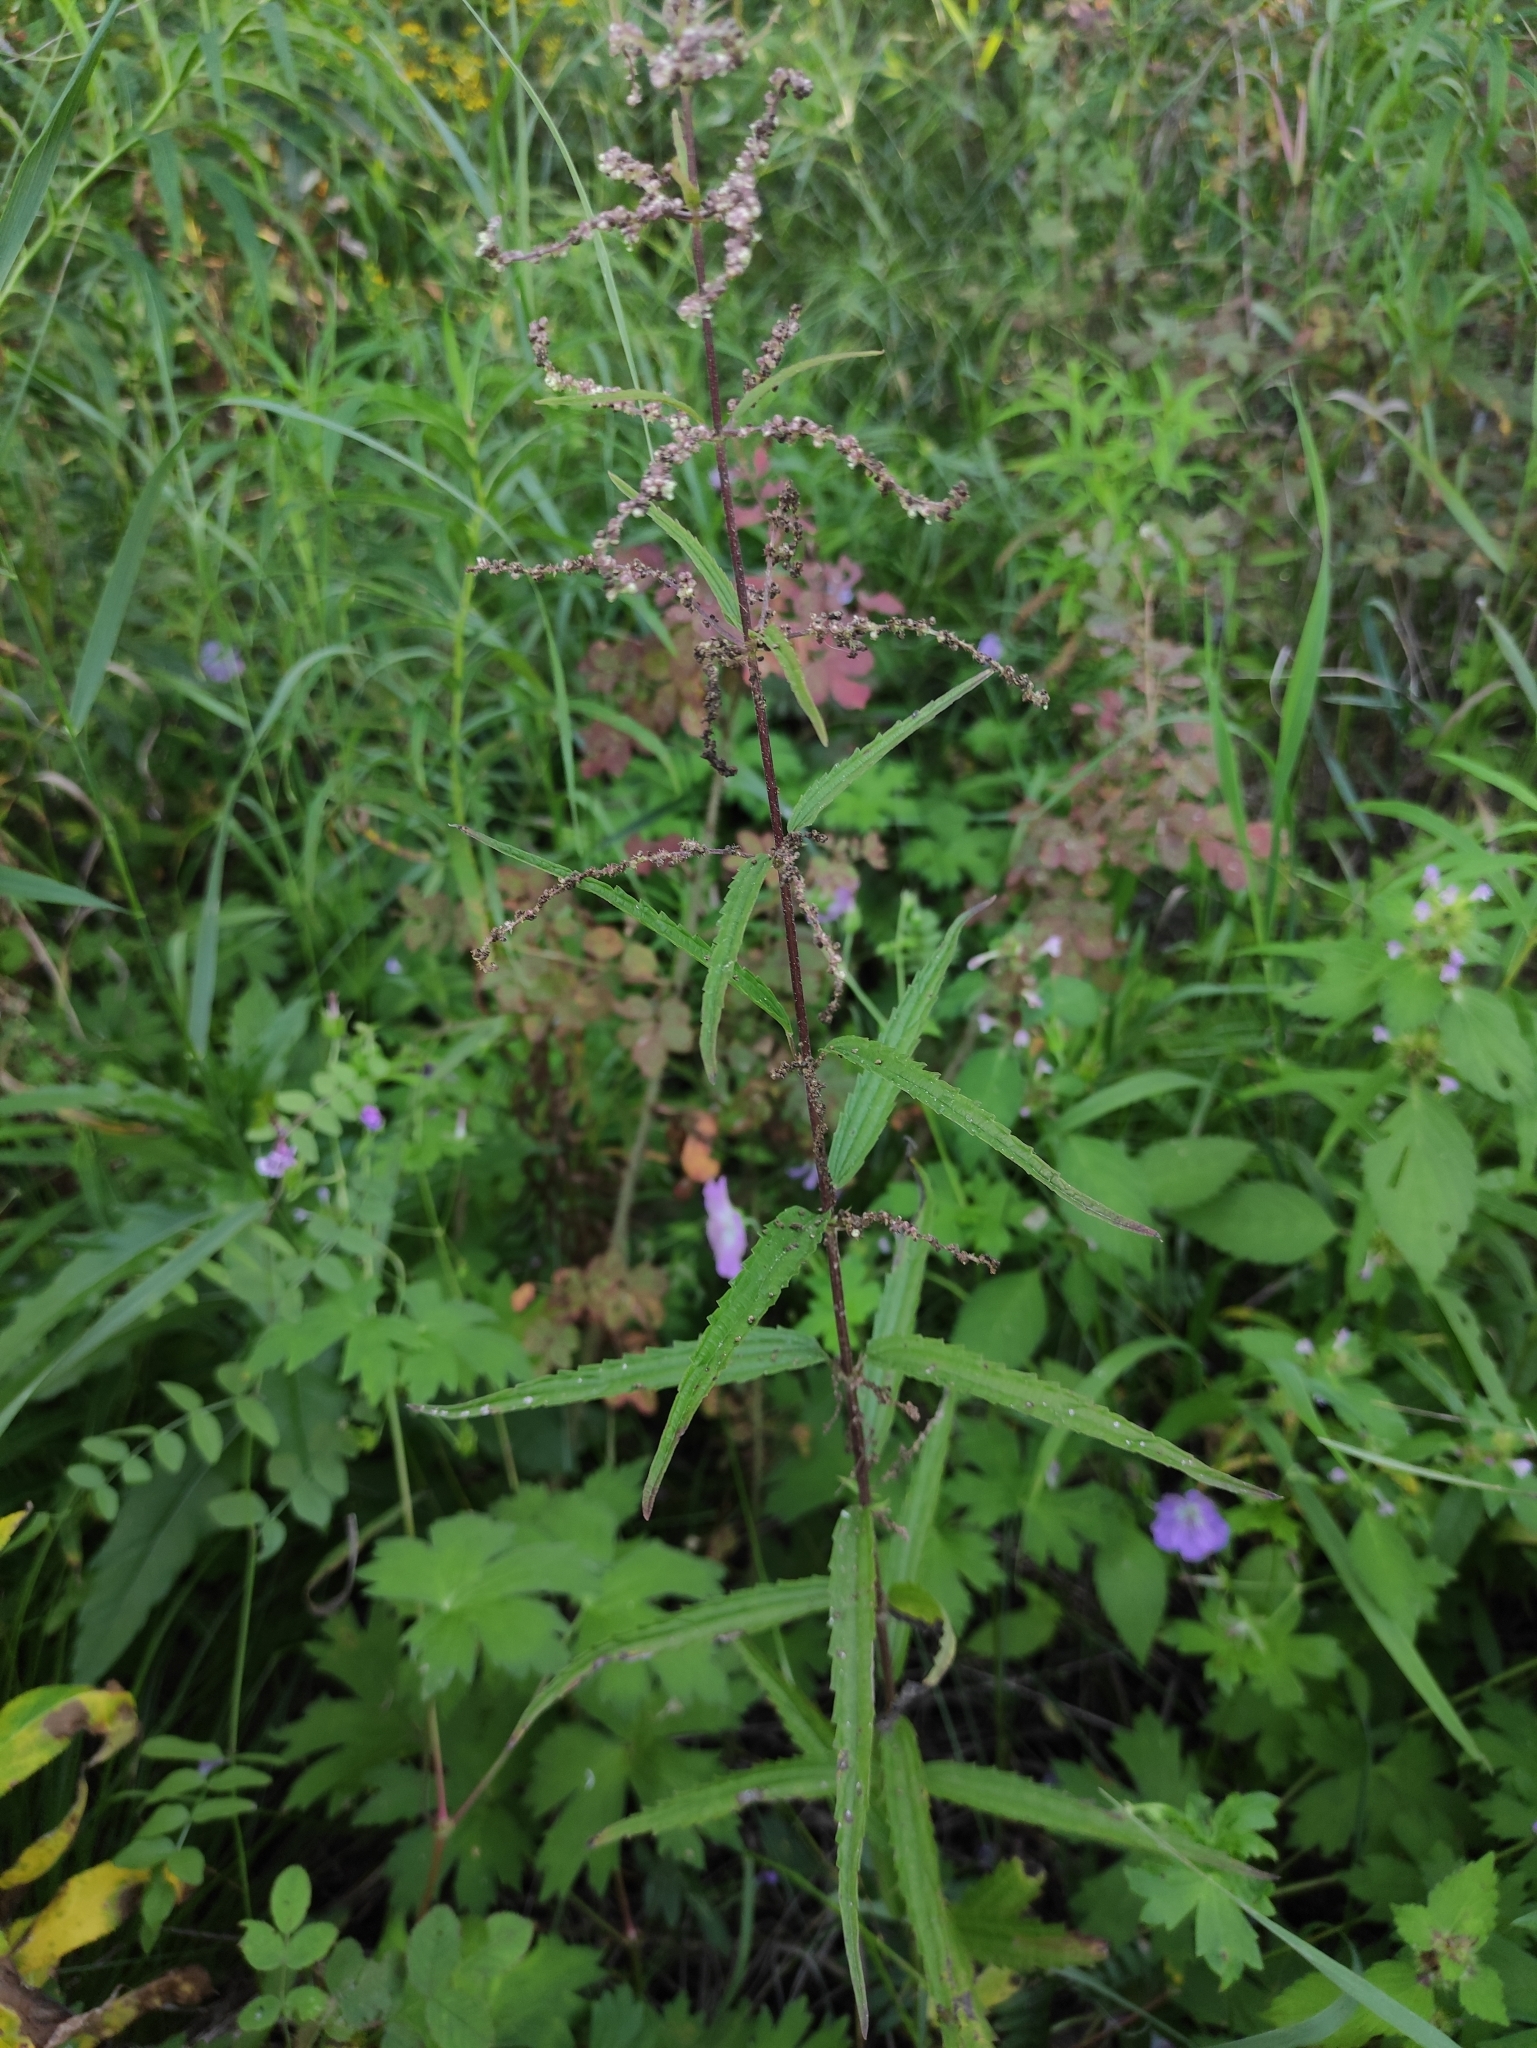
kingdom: Plantae
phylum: Tracheophyta
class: Magnoliopsida
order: Rosales
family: Urticaceae
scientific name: Urticaceae
